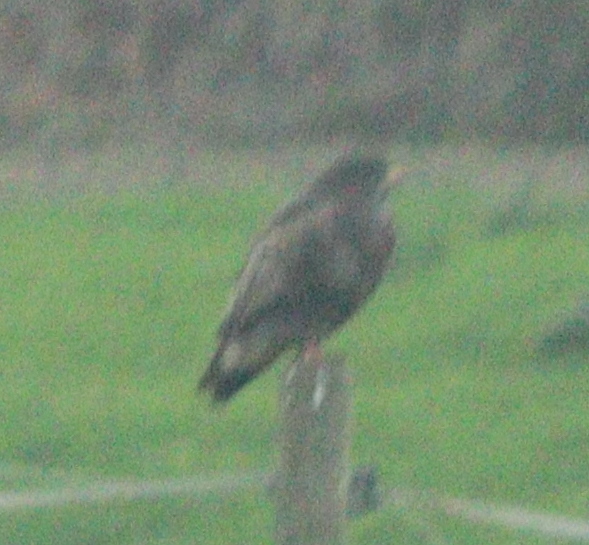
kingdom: Animalia
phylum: Chordata
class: Aves
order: Accipitriformes
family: Accipitridae
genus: Buteo
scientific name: Buteo buteo
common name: Common buzzard
